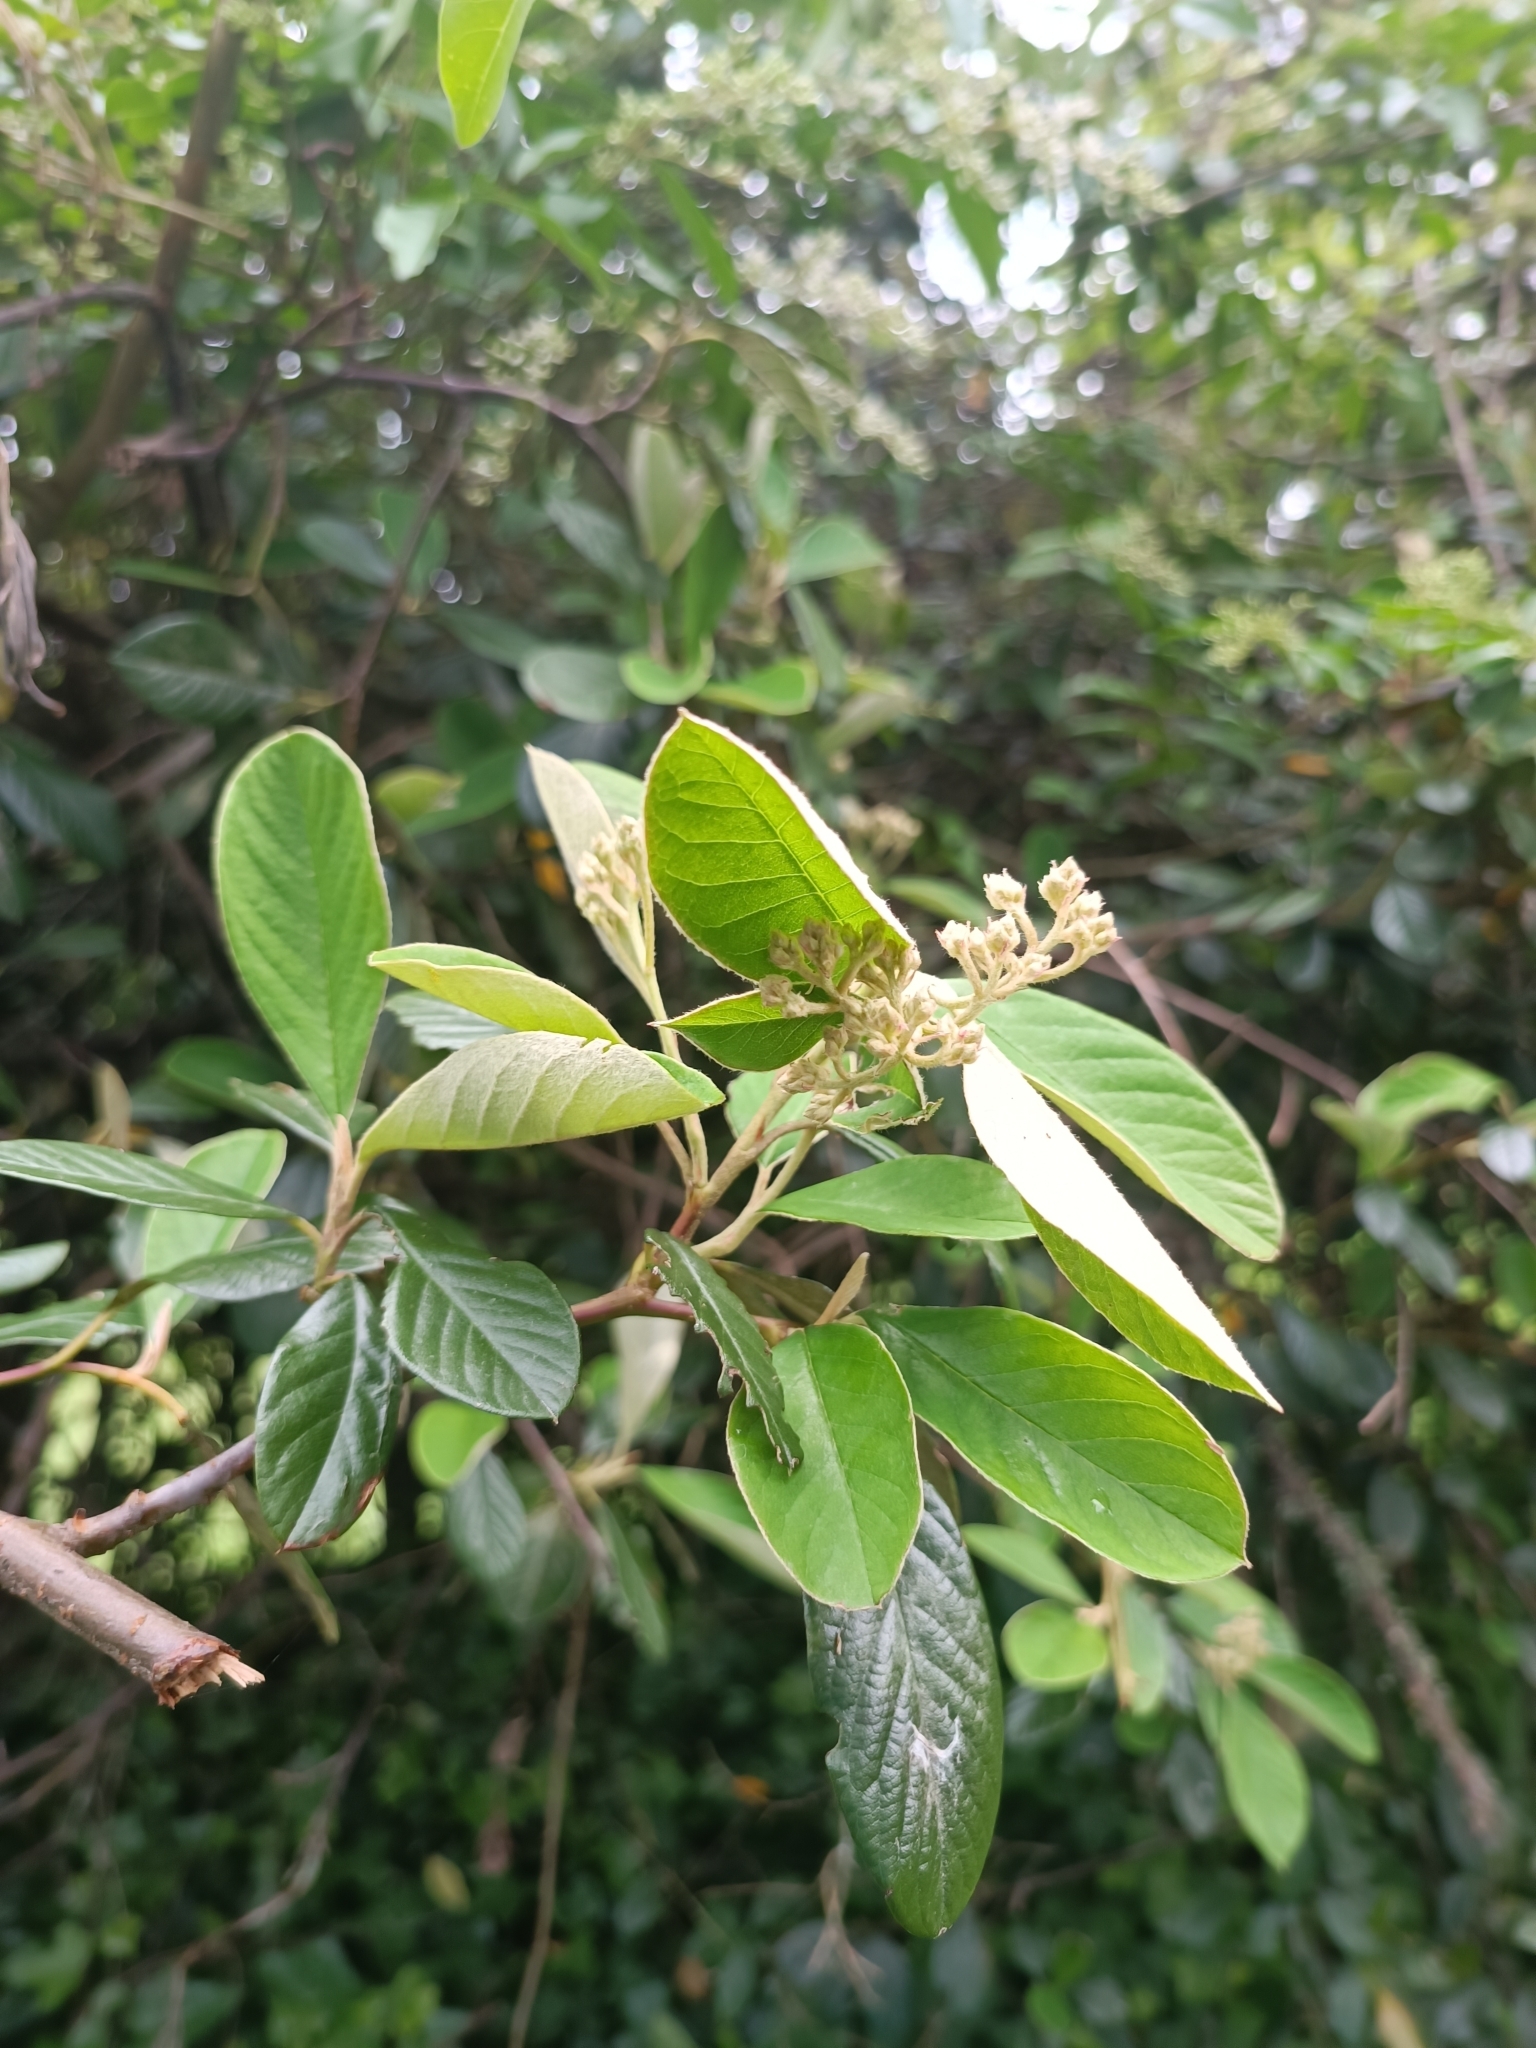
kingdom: Plantae
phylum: Tracheophyta
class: Magnoliopsida
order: Rosales
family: Rosaceae
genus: Cotoneaster
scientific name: Cotoneaster coriaceus
